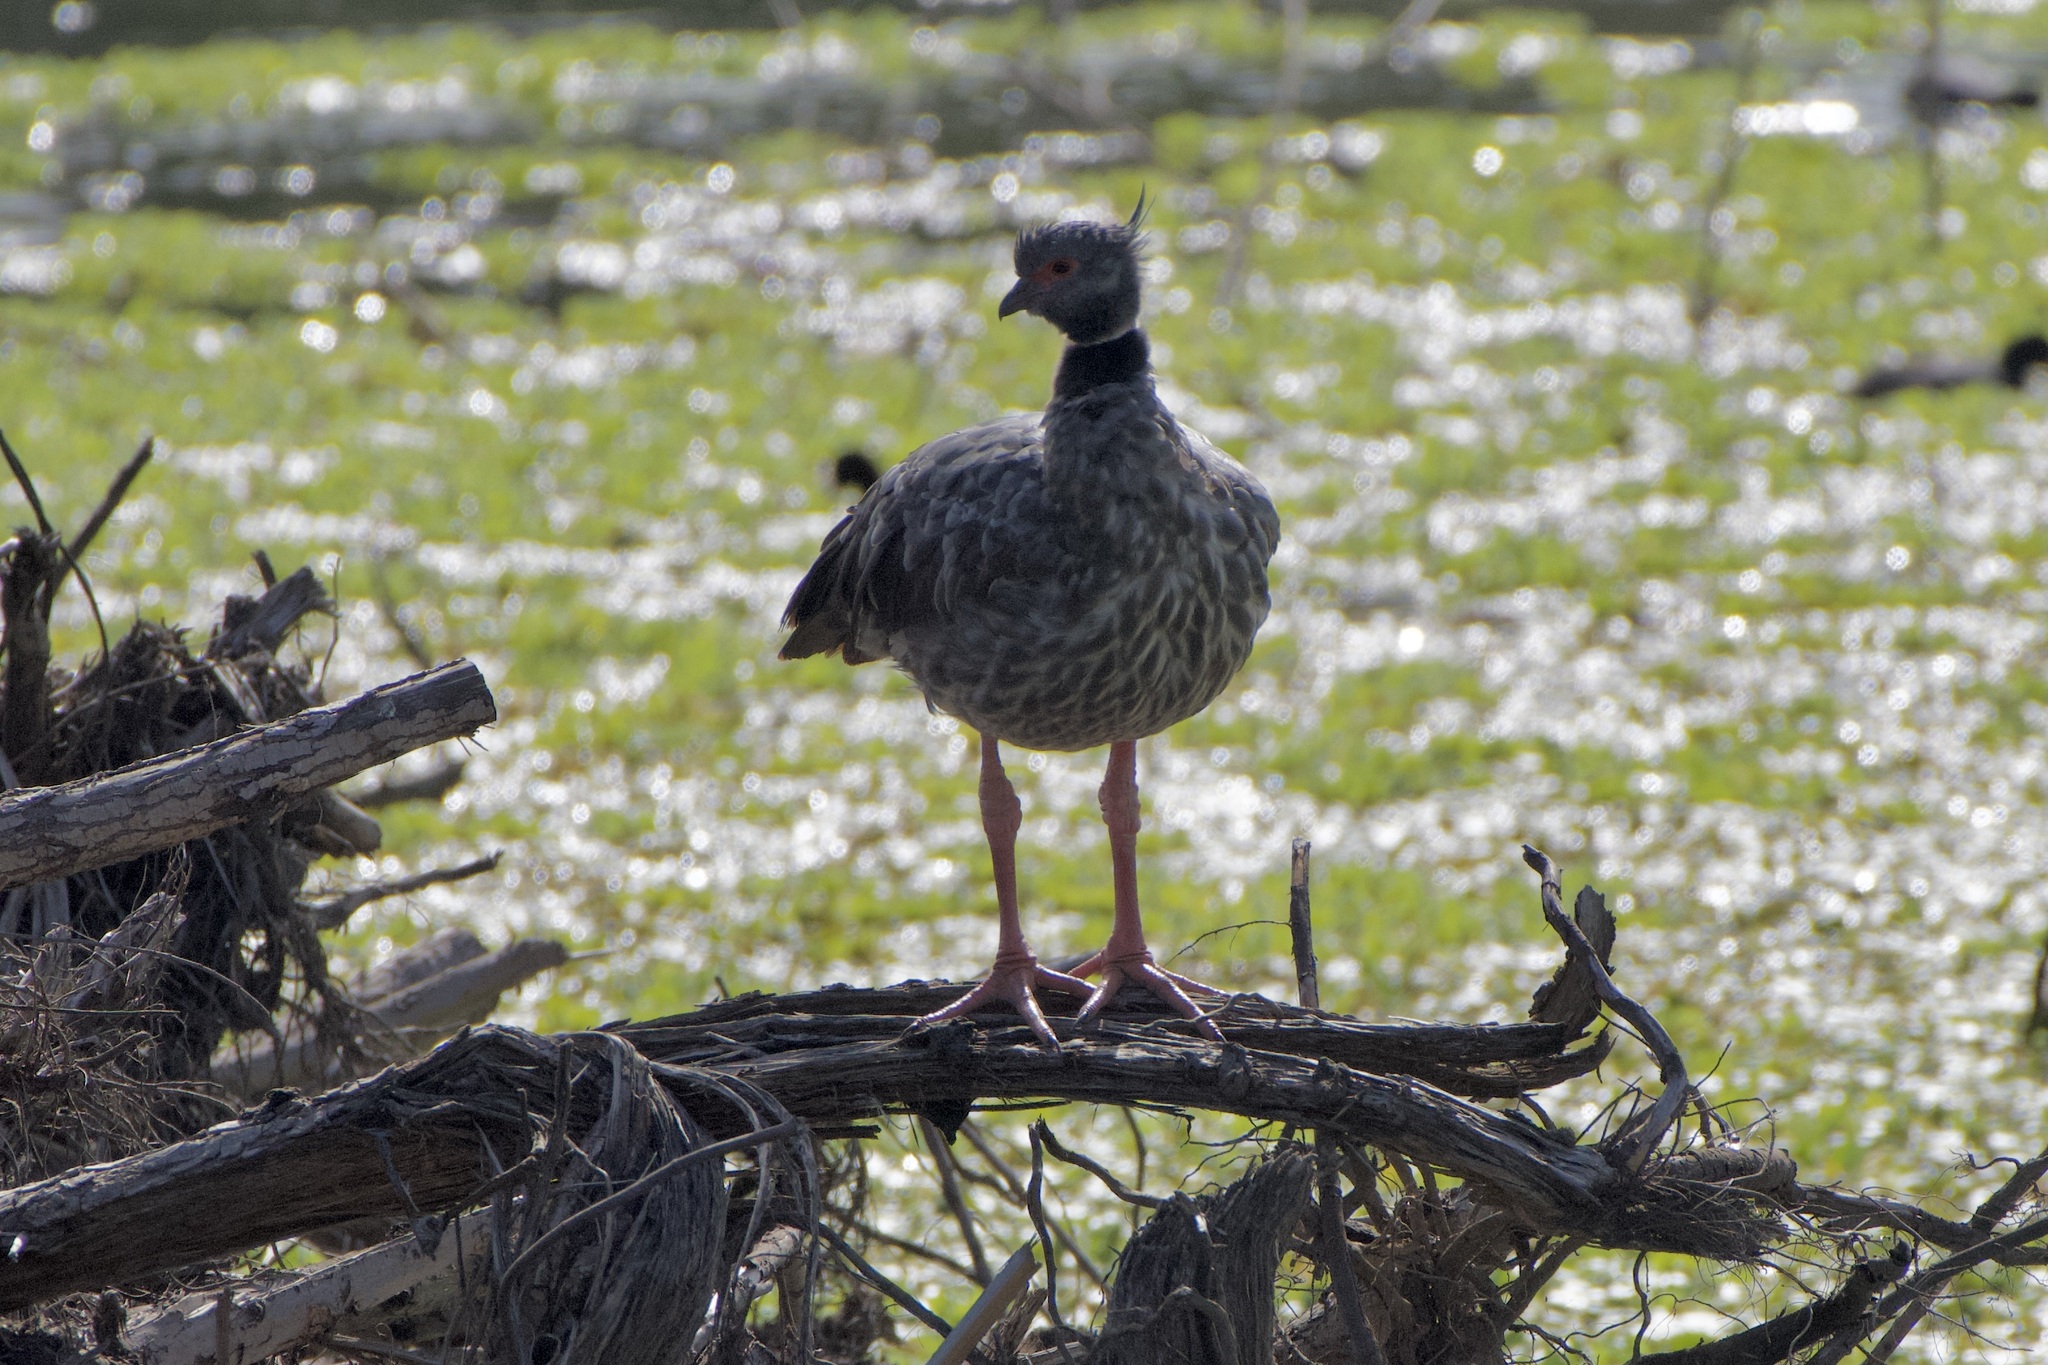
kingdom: Animalia
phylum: Chordata
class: Aves
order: Anseriformes
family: Anhimidae
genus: Chauna
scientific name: Chauna torquata
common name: Southern screamer
